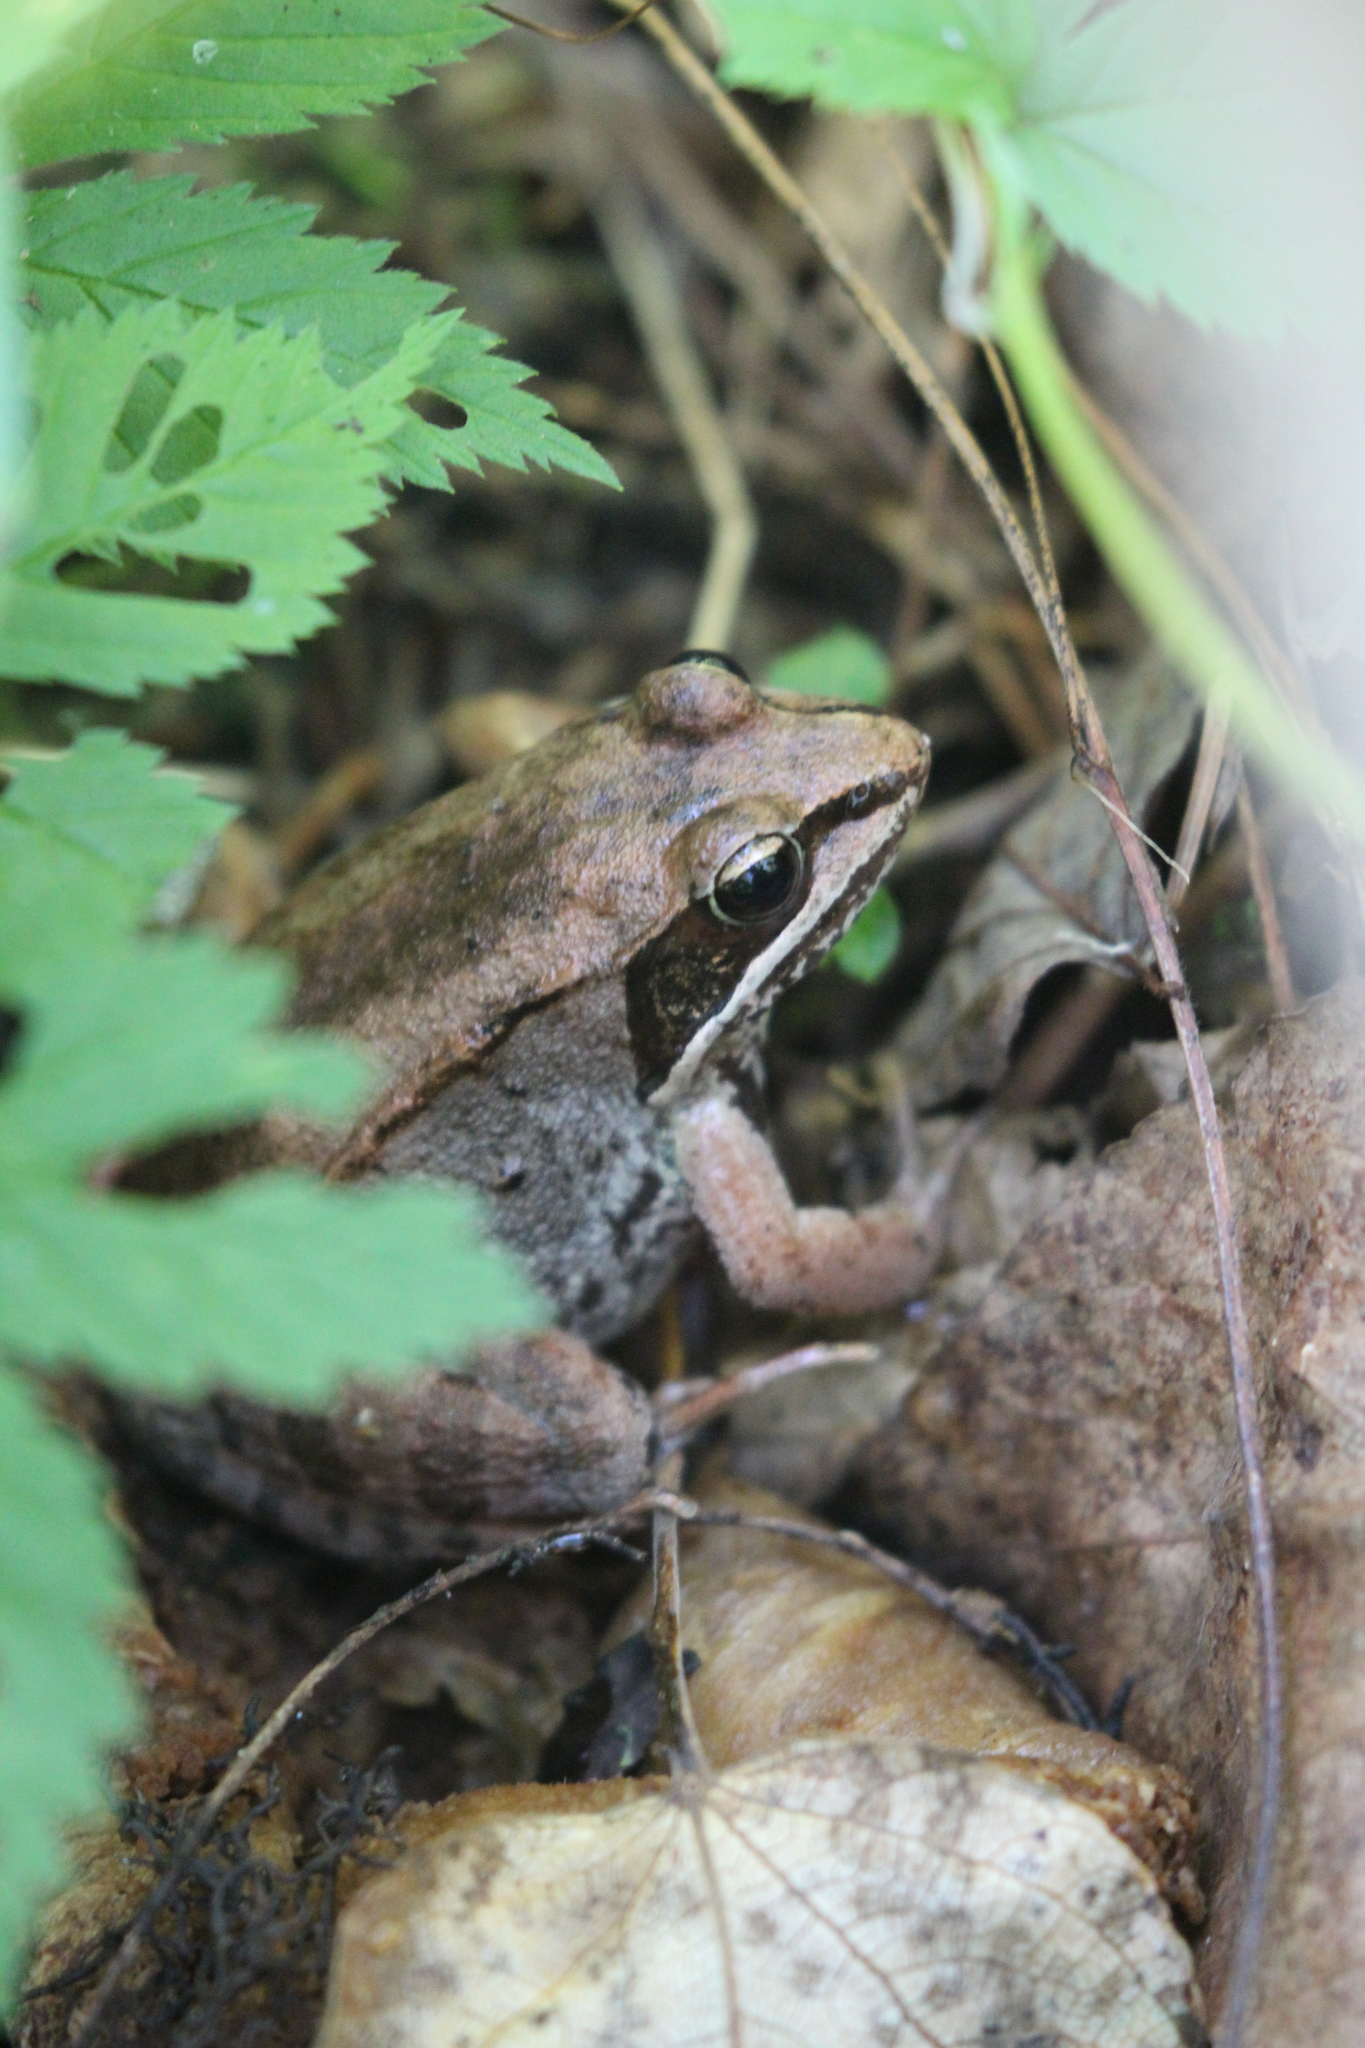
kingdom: Animalia
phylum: Chordata
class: Amphibia
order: Anura
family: Ranidae
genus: Lithobates
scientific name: Lithobates sylvaticus
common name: Wood frog
